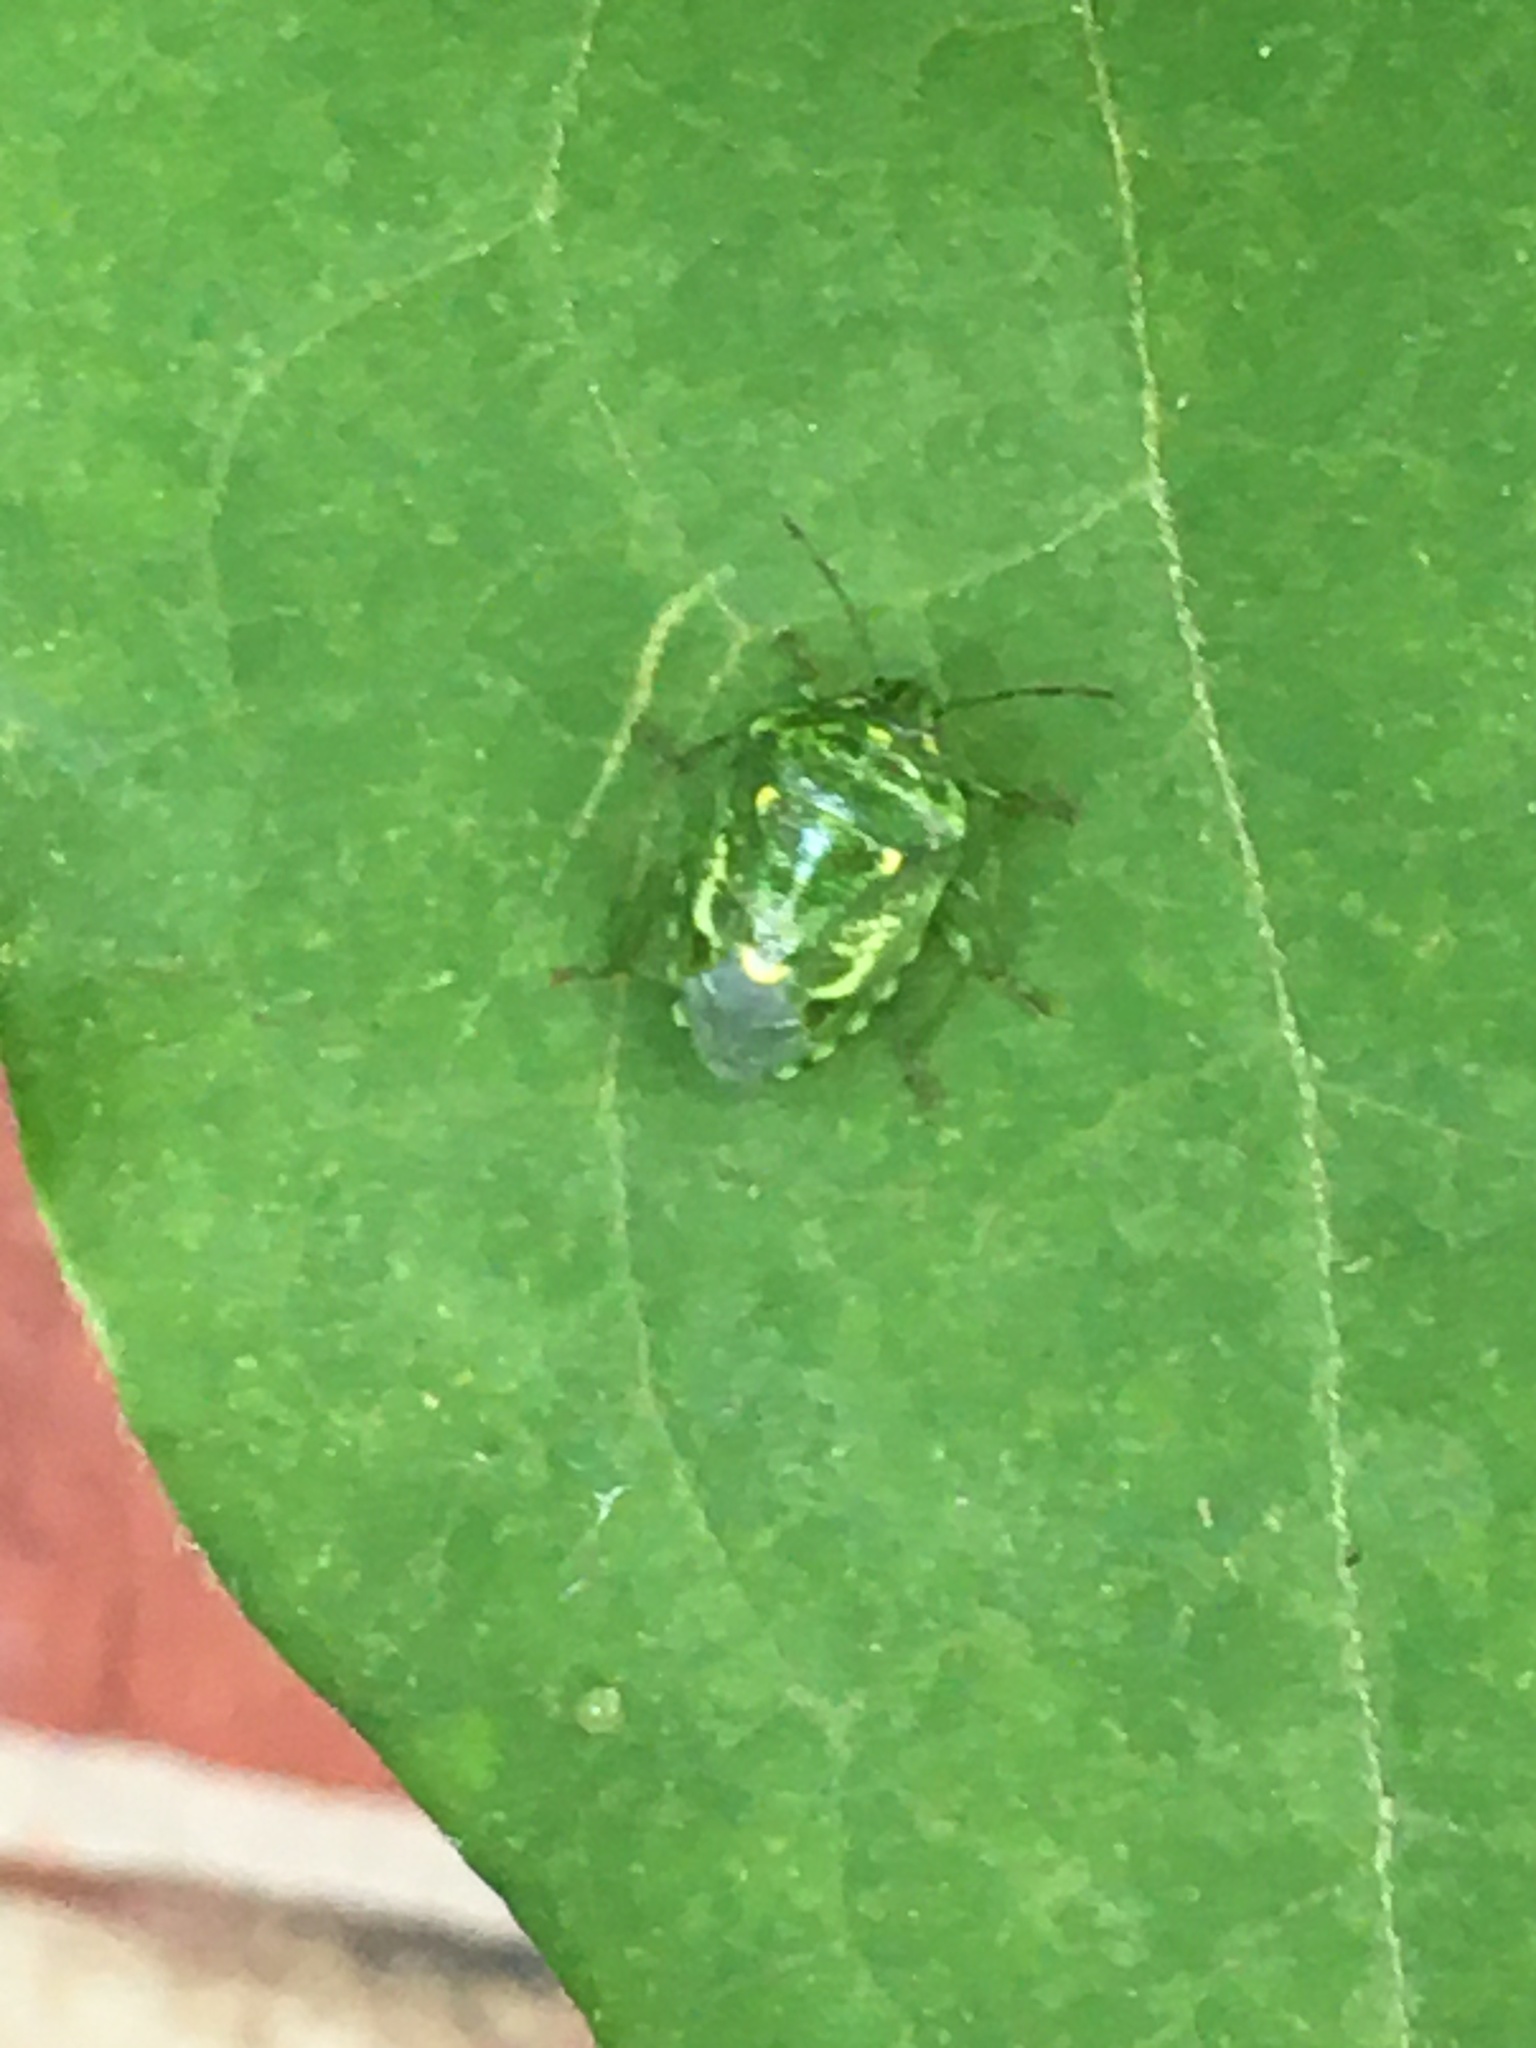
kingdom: Animalia
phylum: Arthropoda
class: Insecta
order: Hemiptera
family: Pentatomidae
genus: Banasa
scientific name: Banasa euchlora
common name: Cedar berry bug
